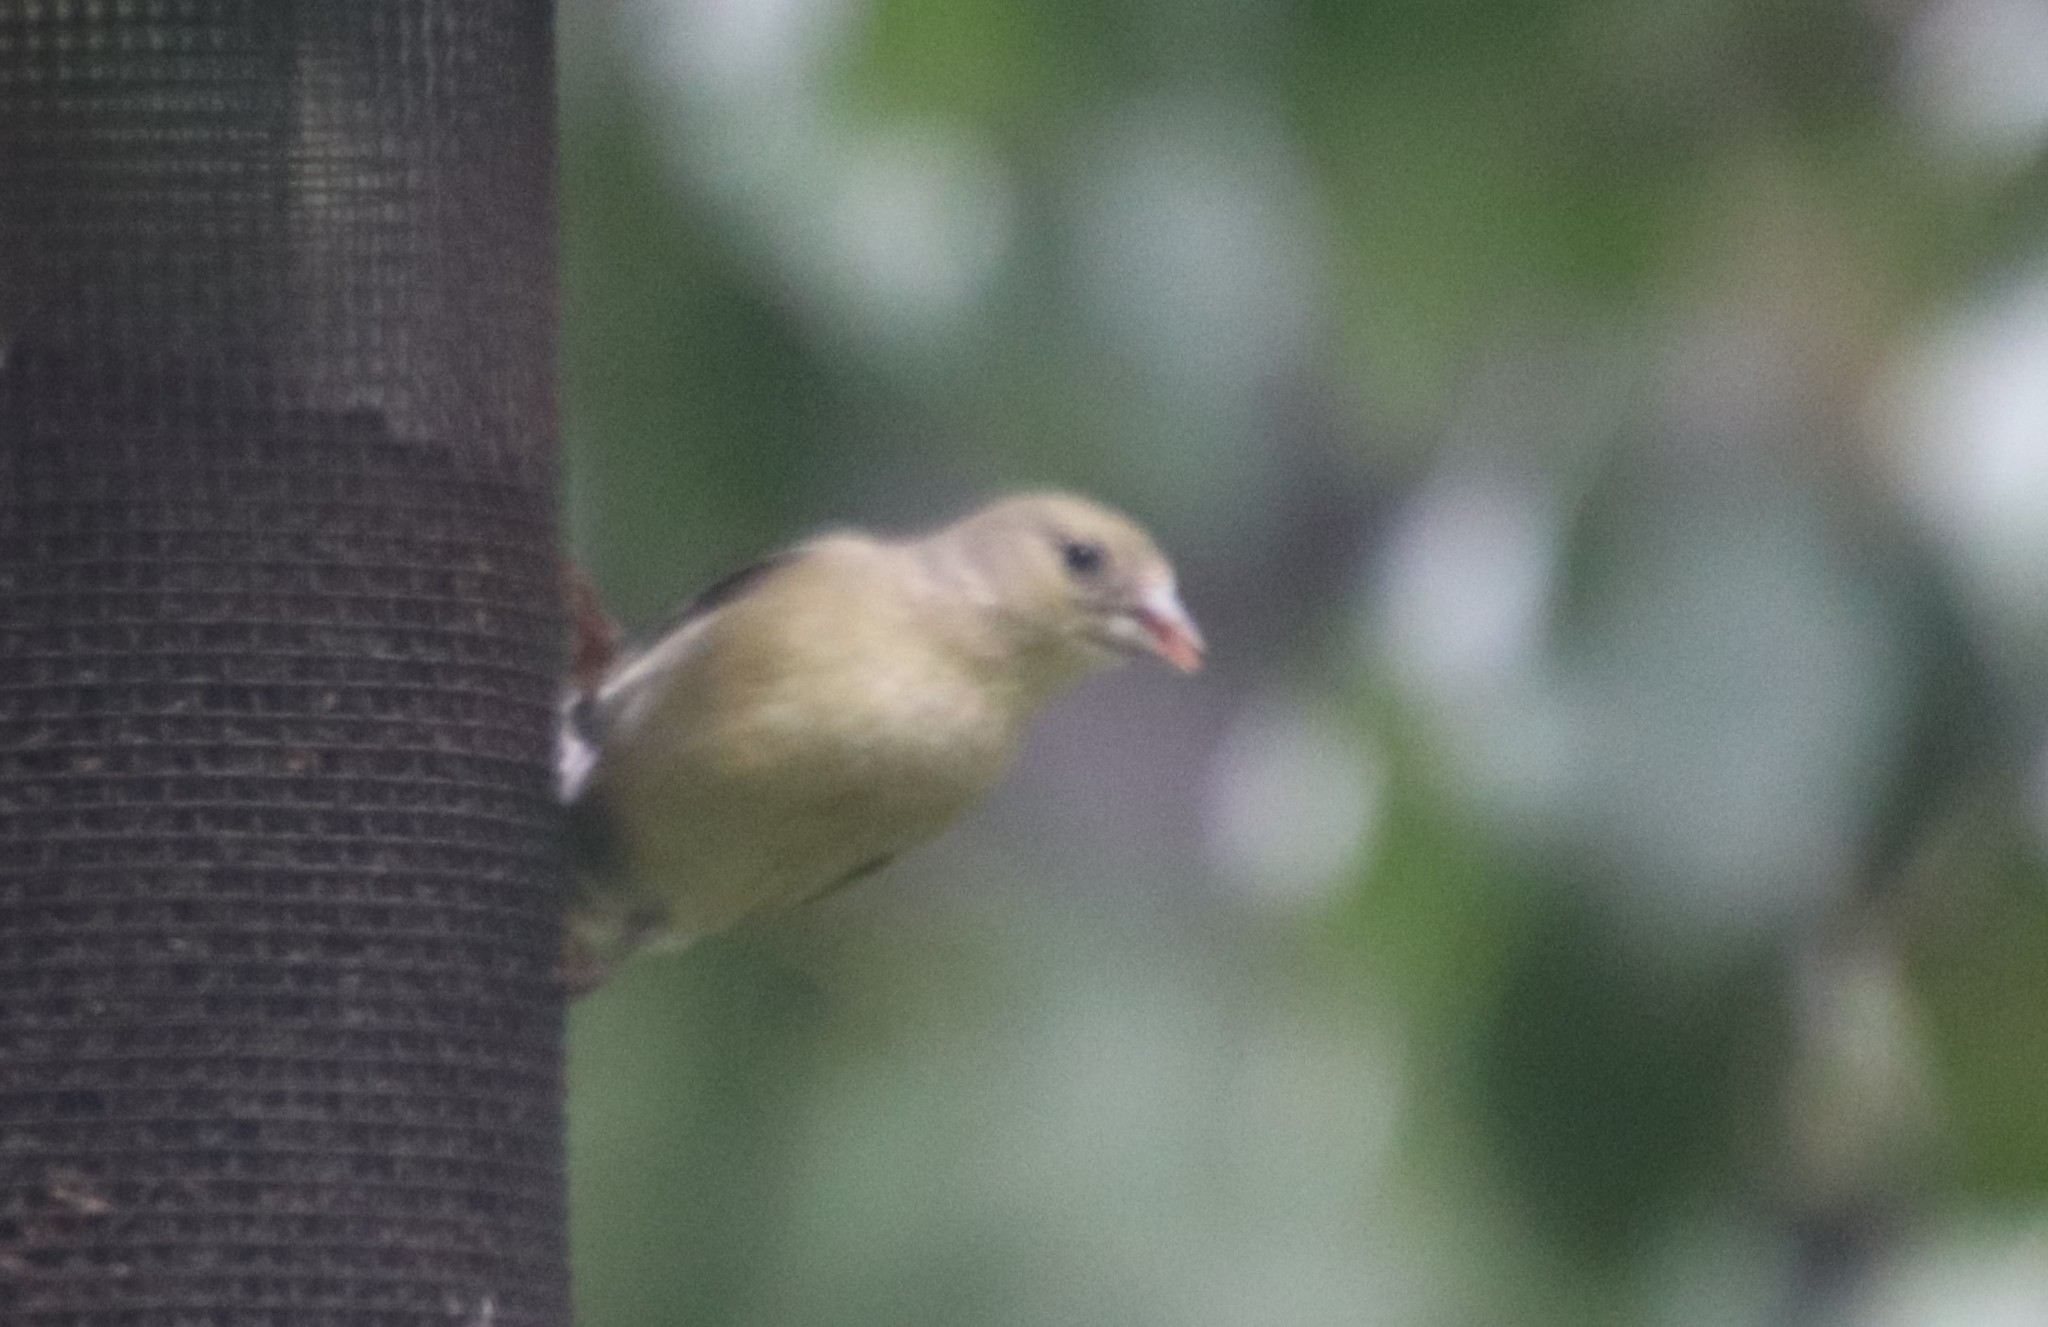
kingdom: Animalia
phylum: Chordata
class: Aves
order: Passeriformes
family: Fringillidae
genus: Spinus
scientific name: Spinus psaltria
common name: Lesser goldfinch
